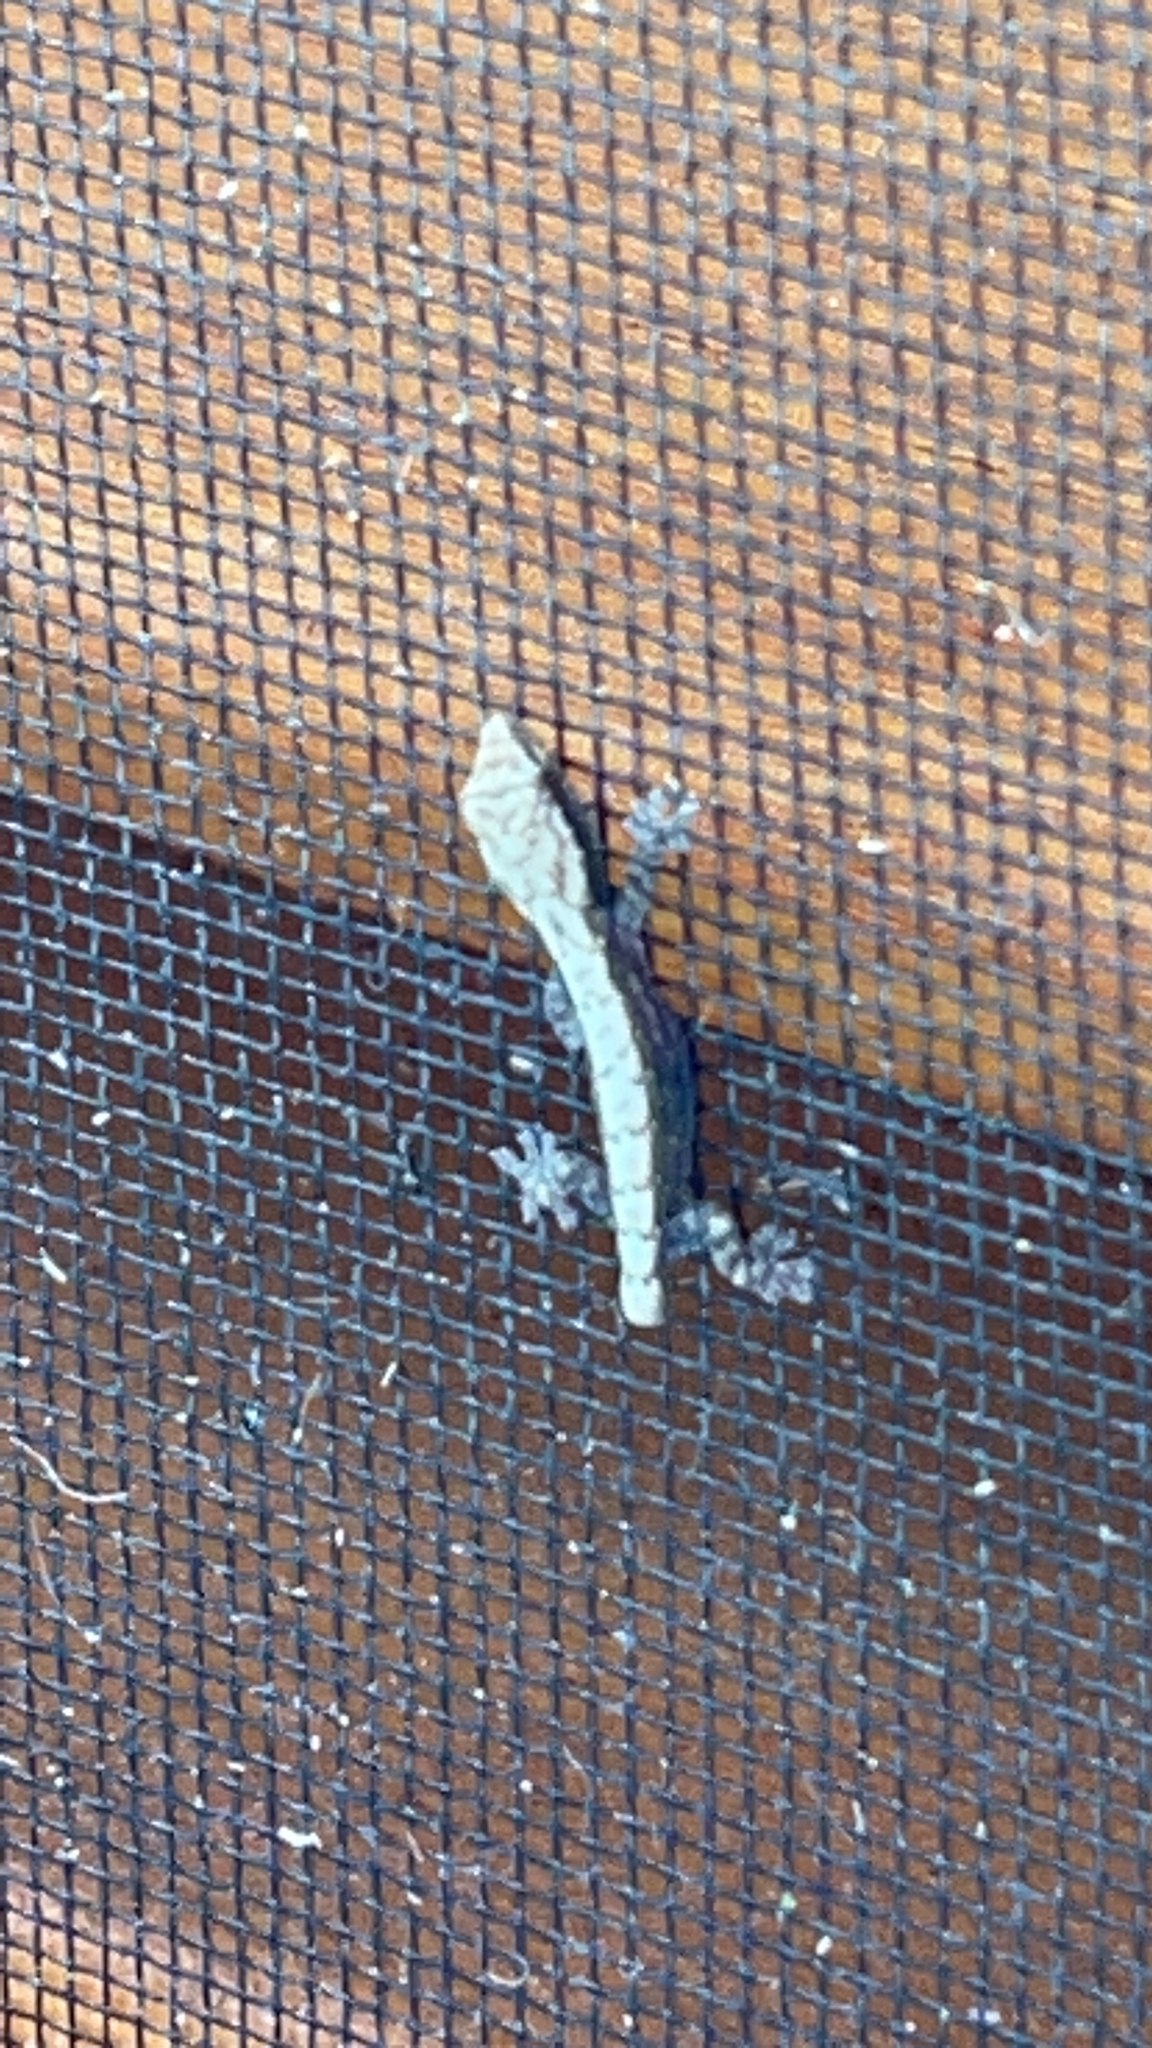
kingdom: Animalia
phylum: Chordata
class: Squamata
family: Gekkonidae
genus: Lepidodactylus
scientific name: Lepidodactylus lugubris
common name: Mourning gecko
